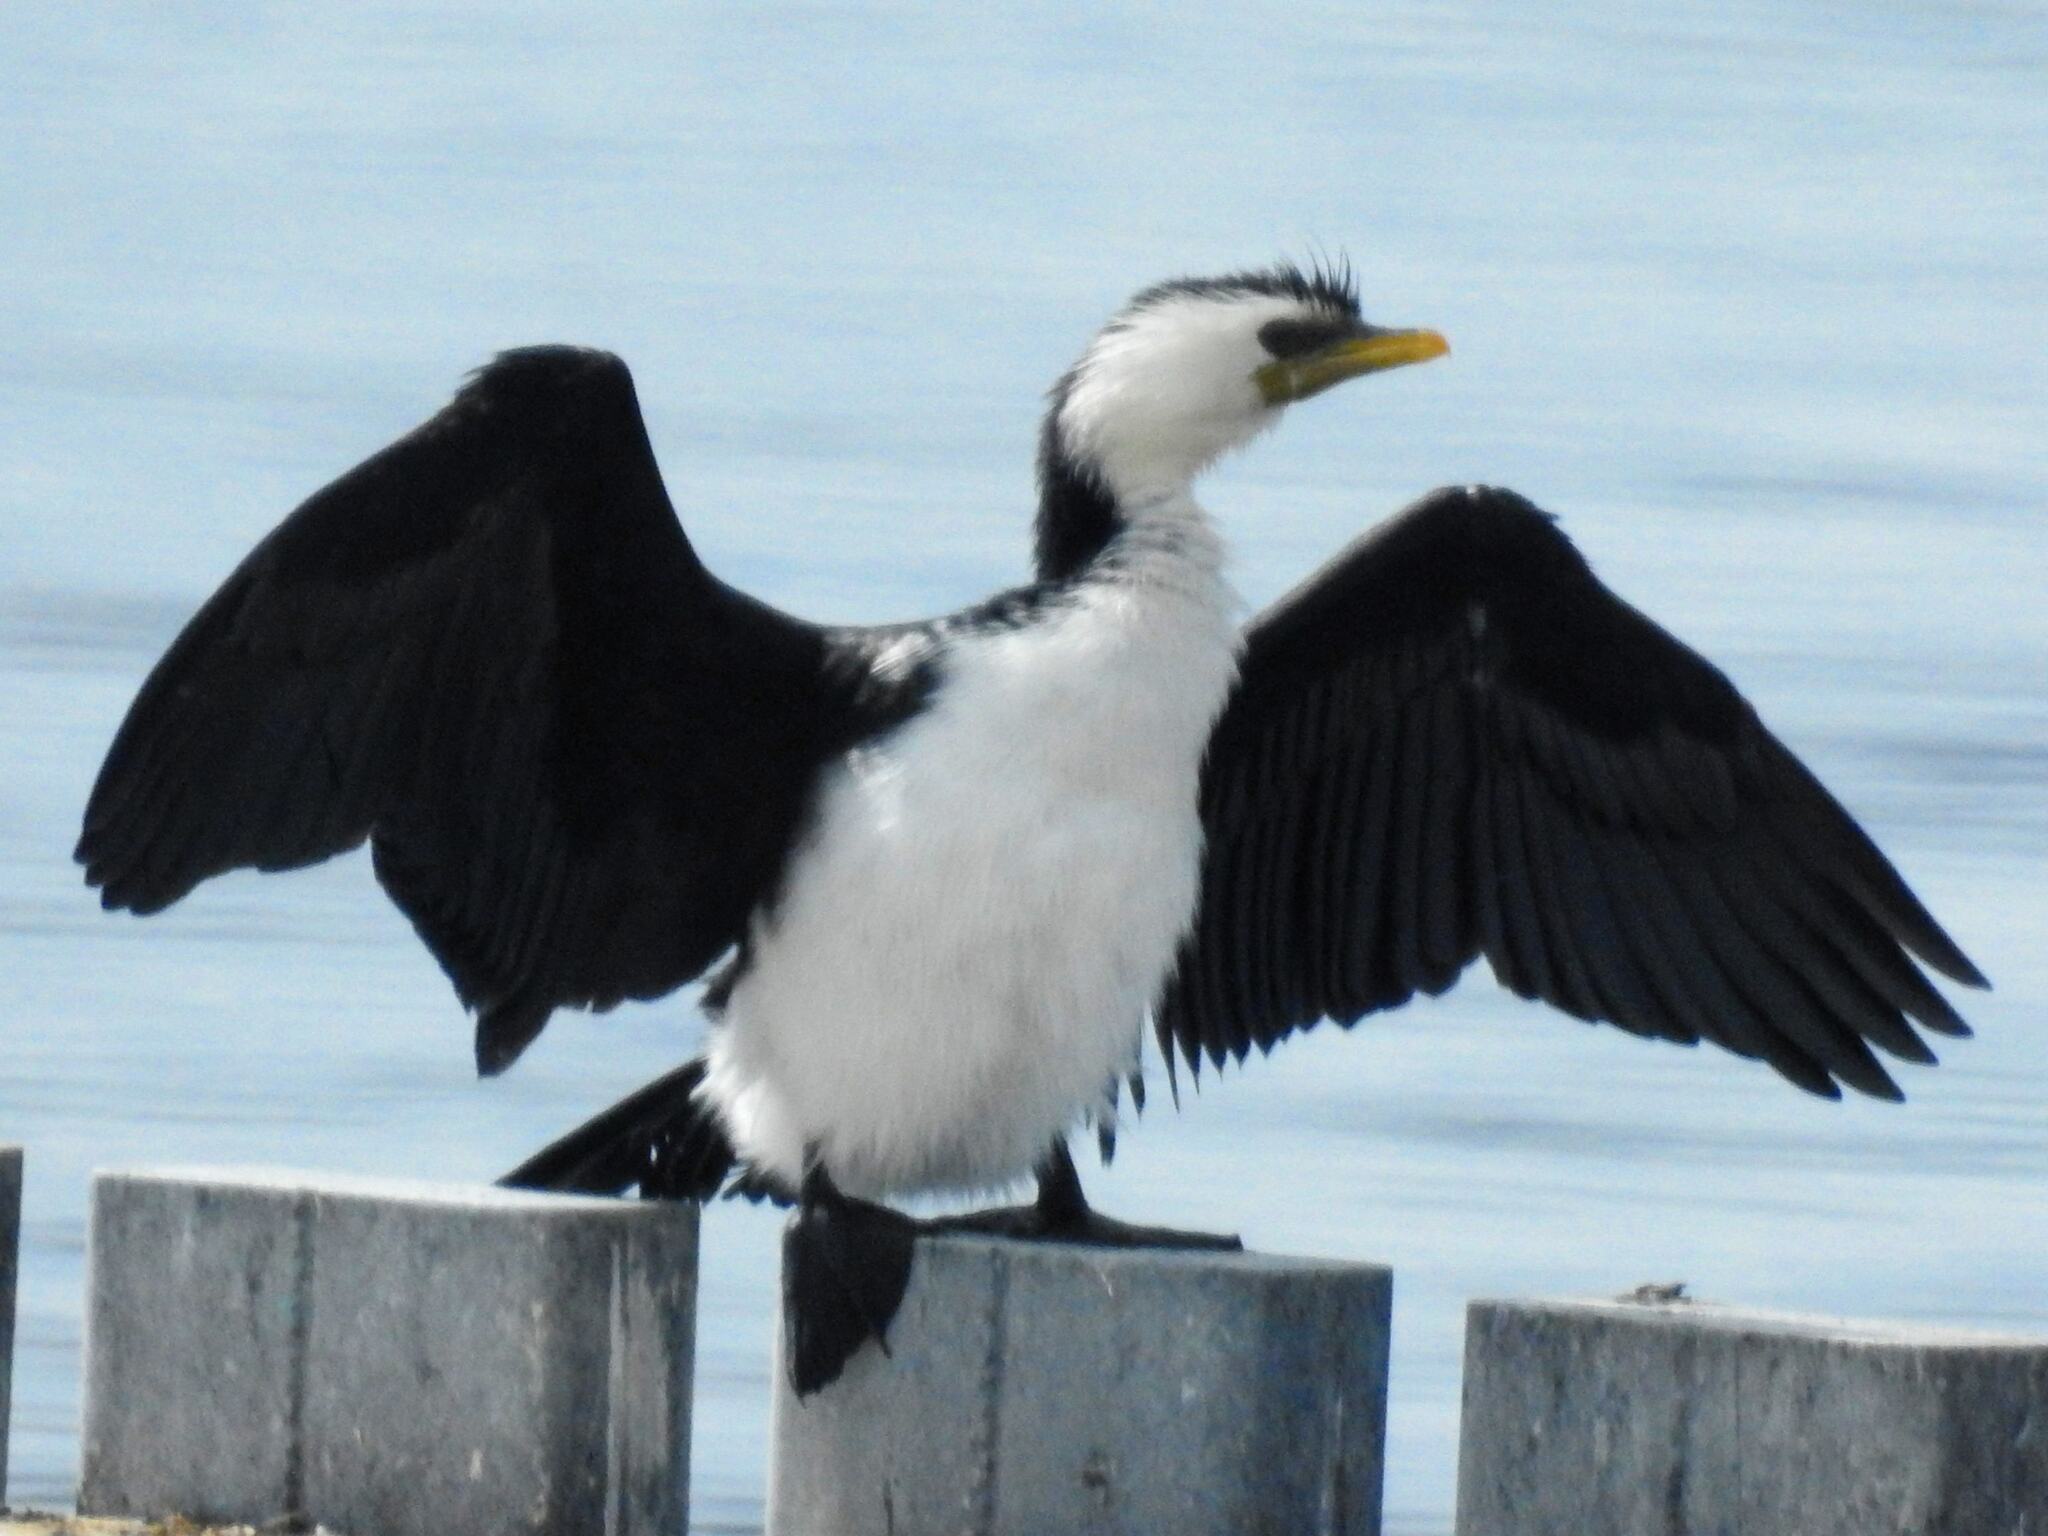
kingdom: Animalia
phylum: Chordata
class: Aves
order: Suliformes
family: Phalacrocoracidae
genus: Microcarbo
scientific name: Microcarbo melanoleucos
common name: Little pied cormorant
